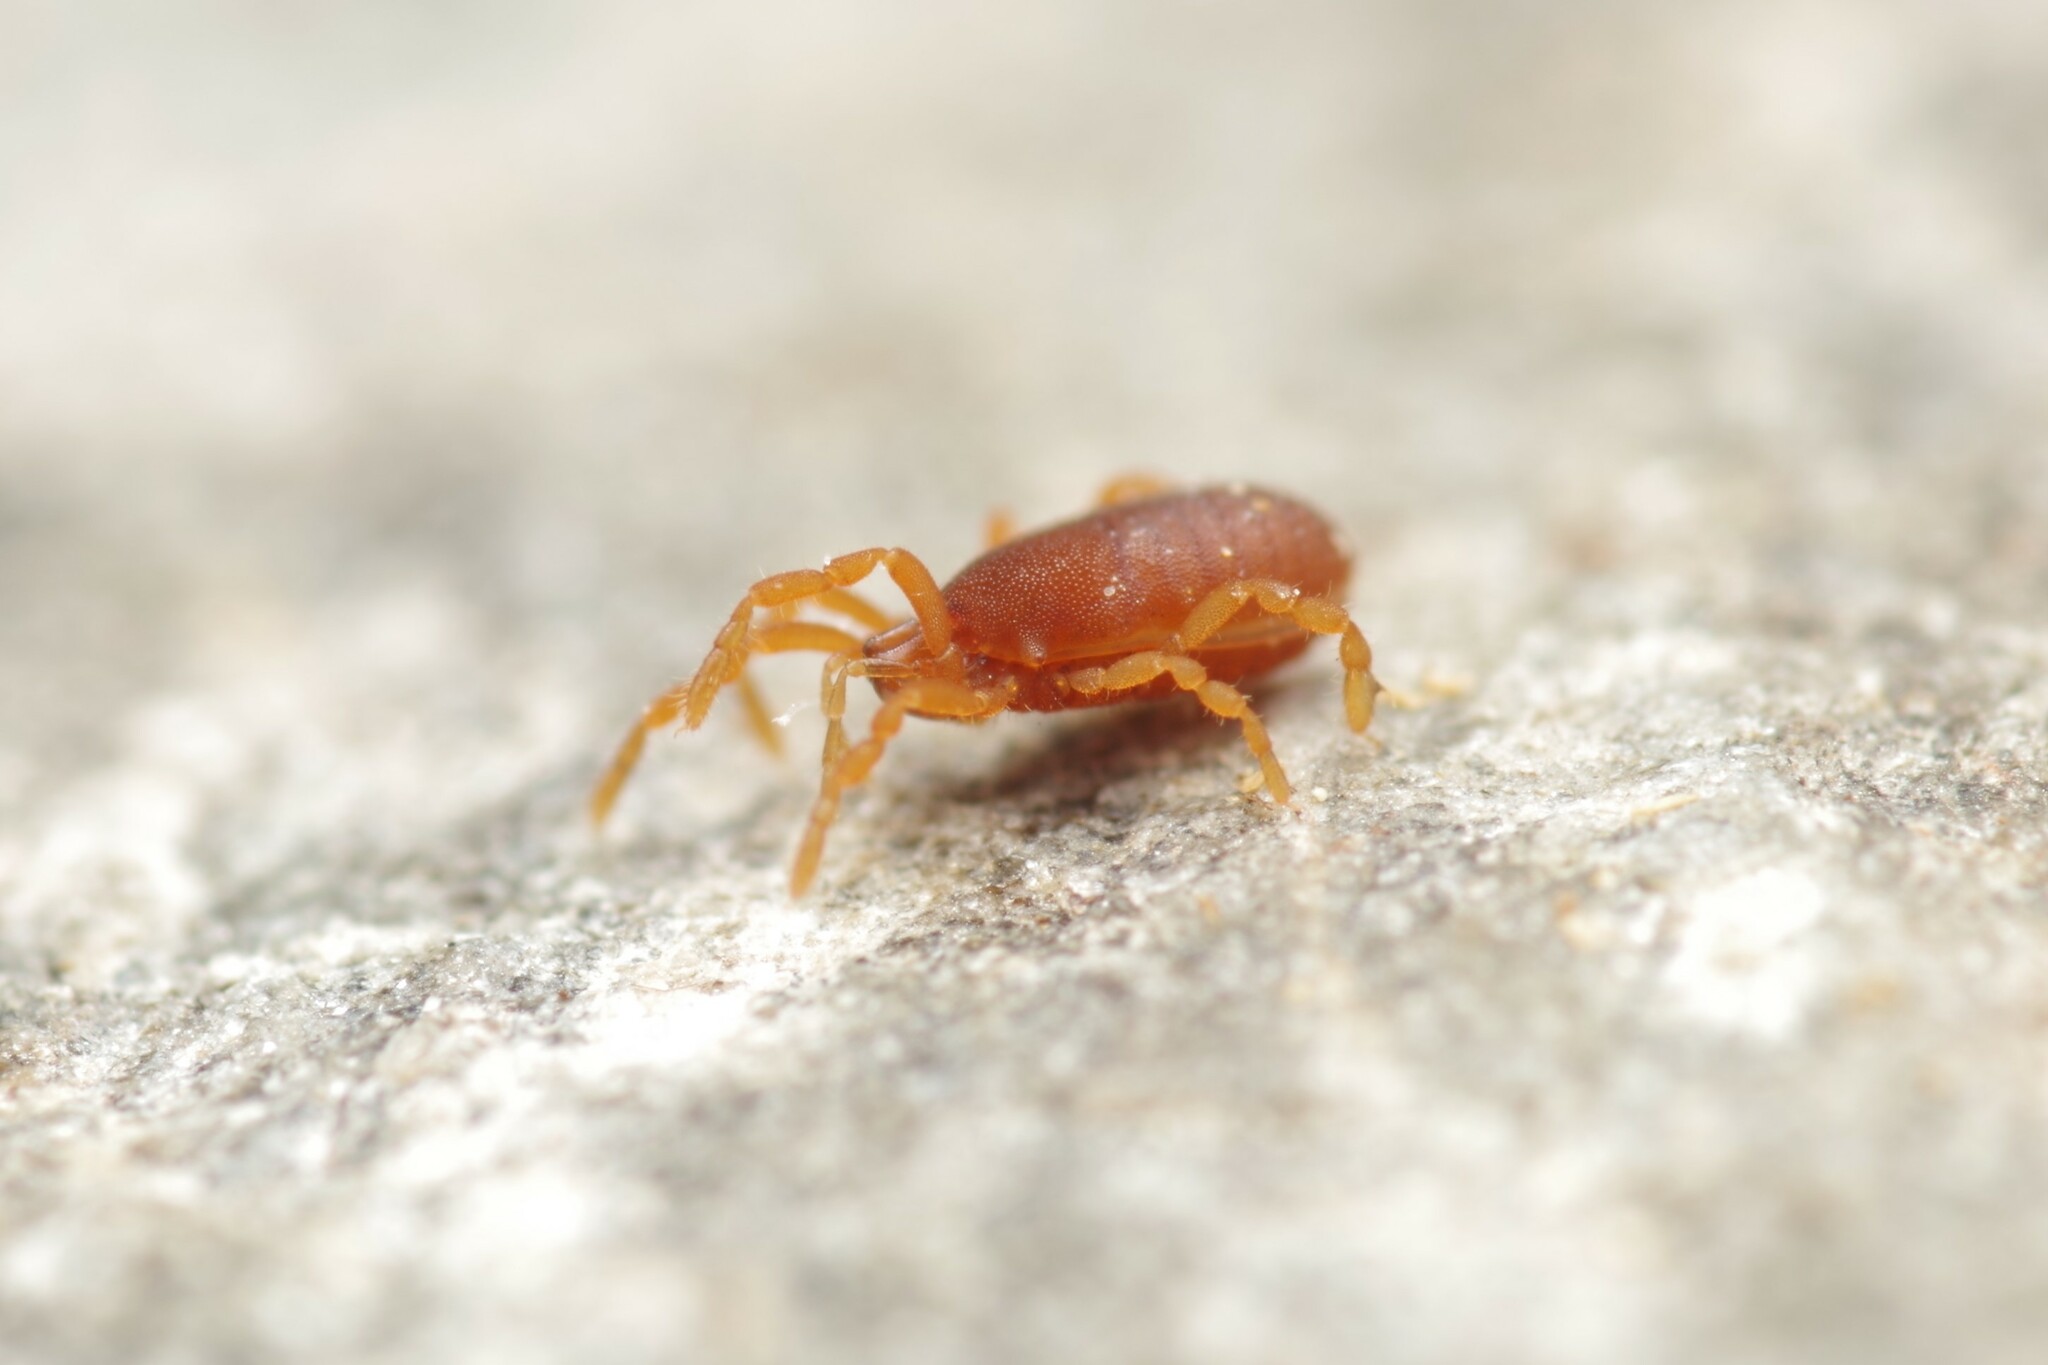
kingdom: Animalia
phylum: Arthropoda
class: Arachnida
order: Opiliones
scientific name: Opiliones
